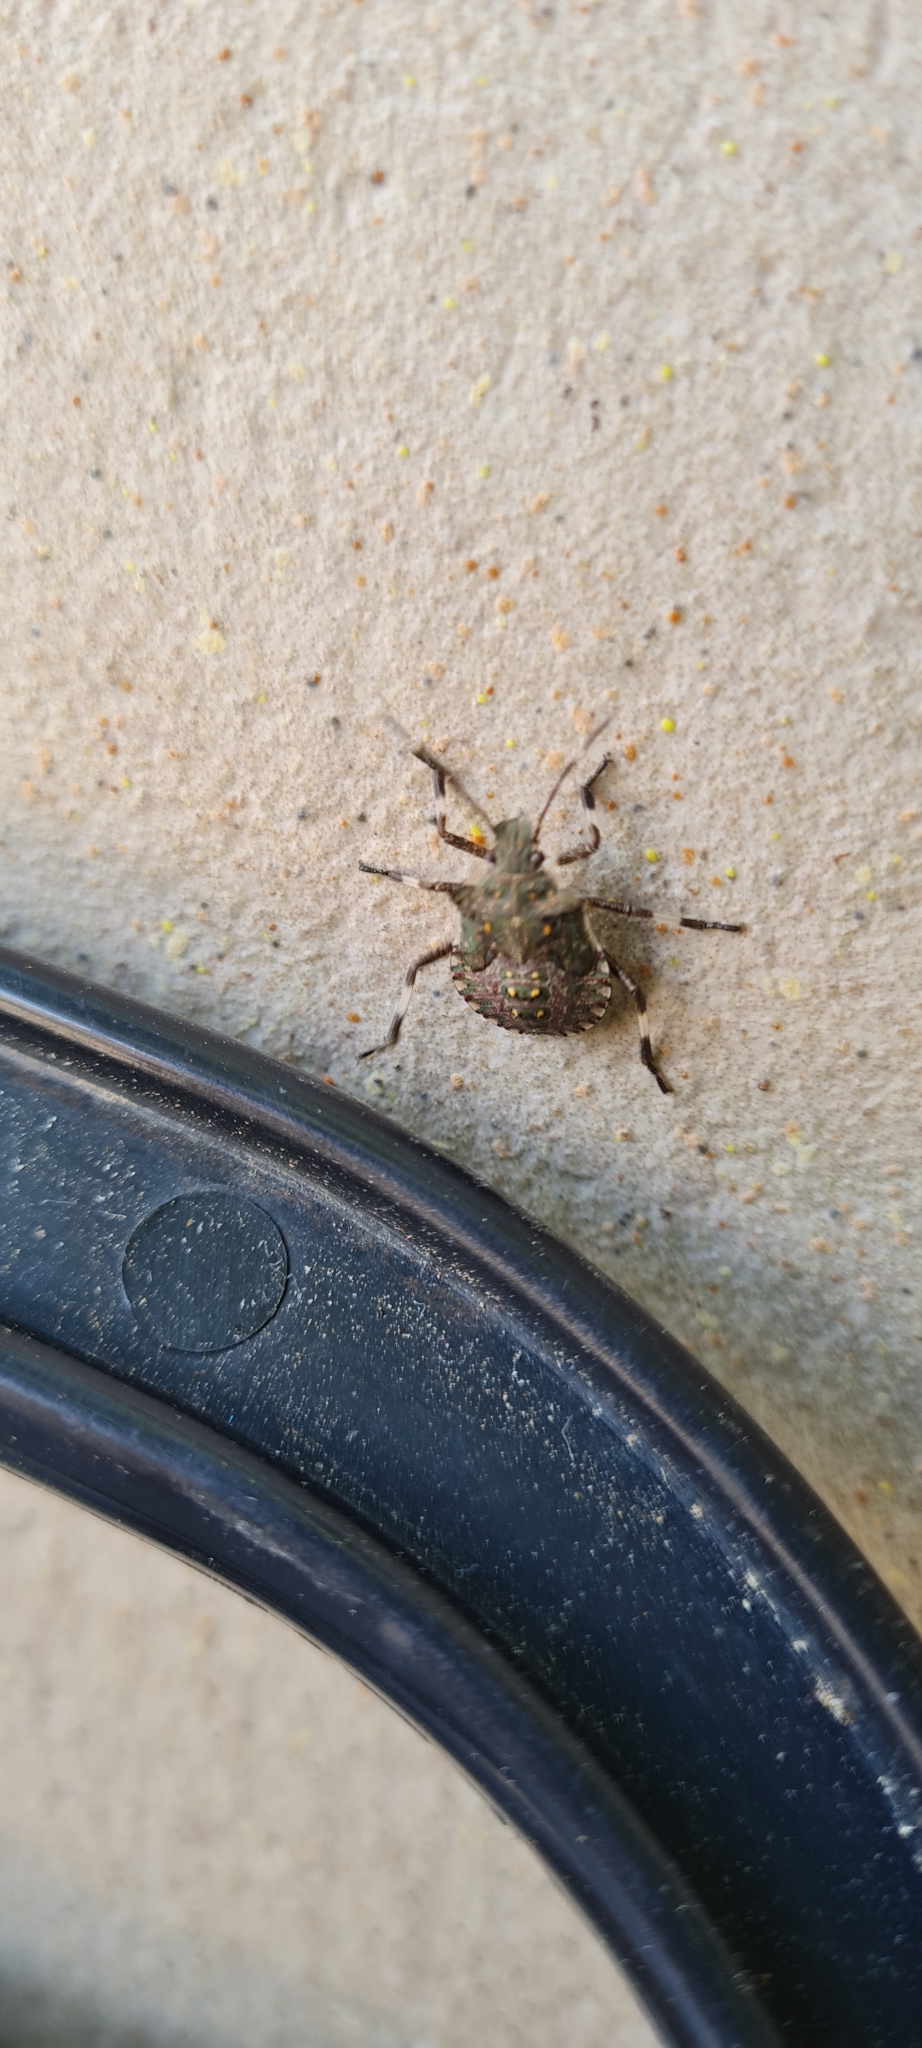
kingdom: Animalia
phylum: Arthropoda
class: Insecta
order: Hemiptera
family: Pentatomidae
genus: Halyomorpha
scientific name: Halyomorpha halys
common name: Brown marmorated stink bug
